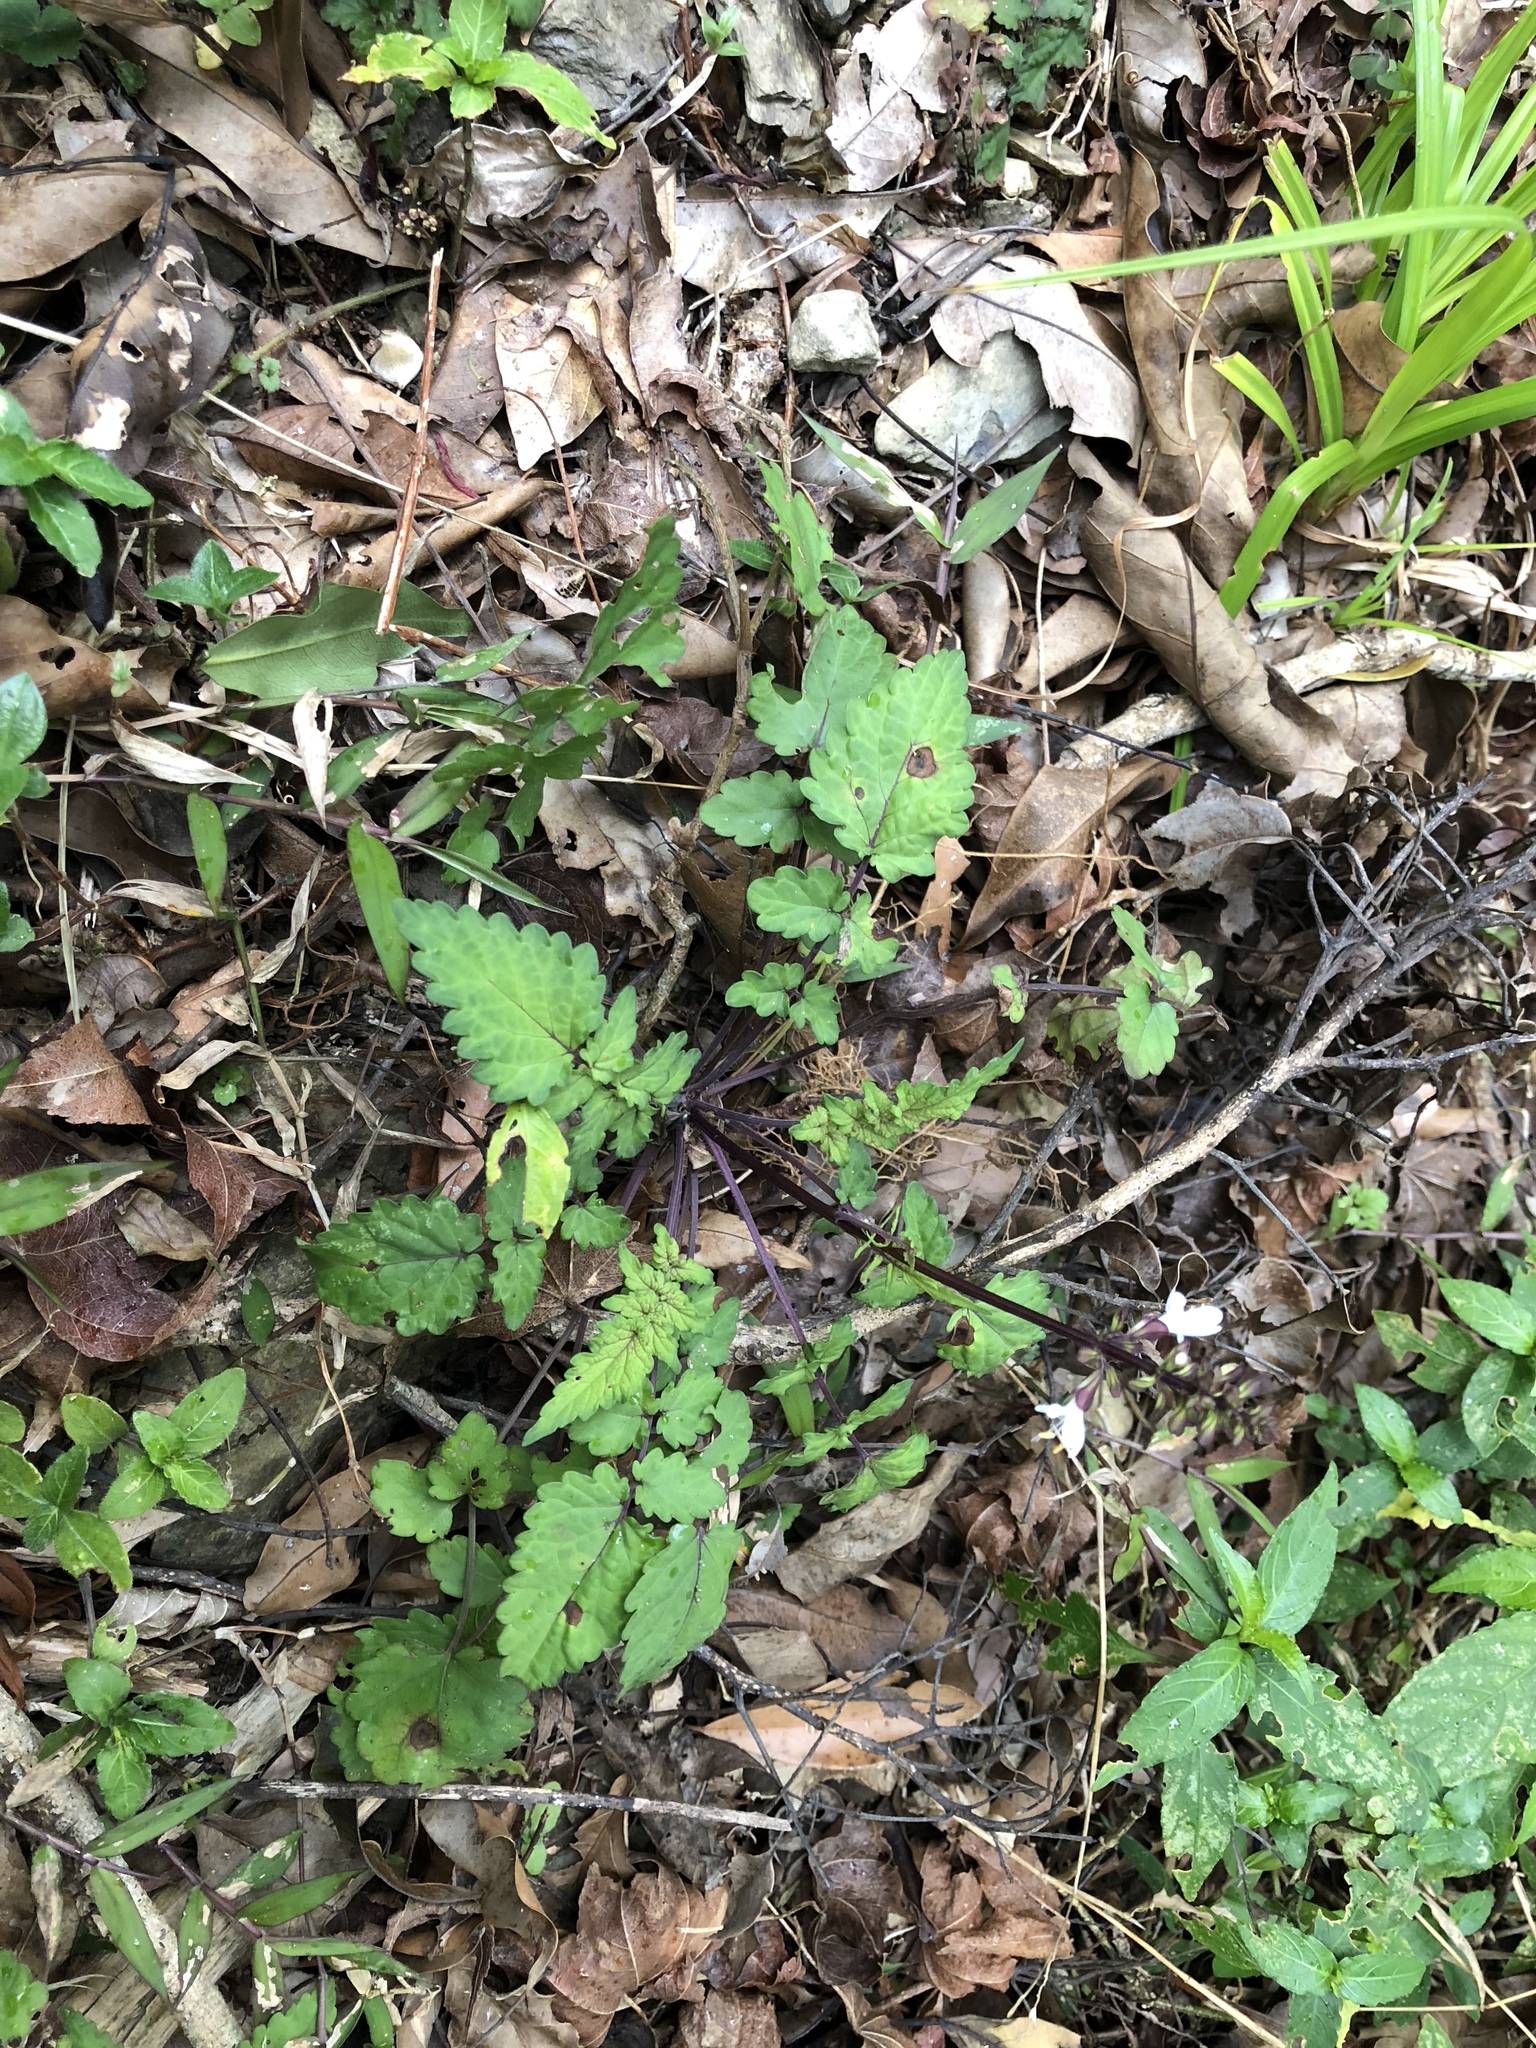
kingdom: Plantae
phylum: Tracheophyta
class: Magnoliopsida
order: Lamiales
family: Lamiaceae
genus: Salvia
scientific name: Salvia hayatae
